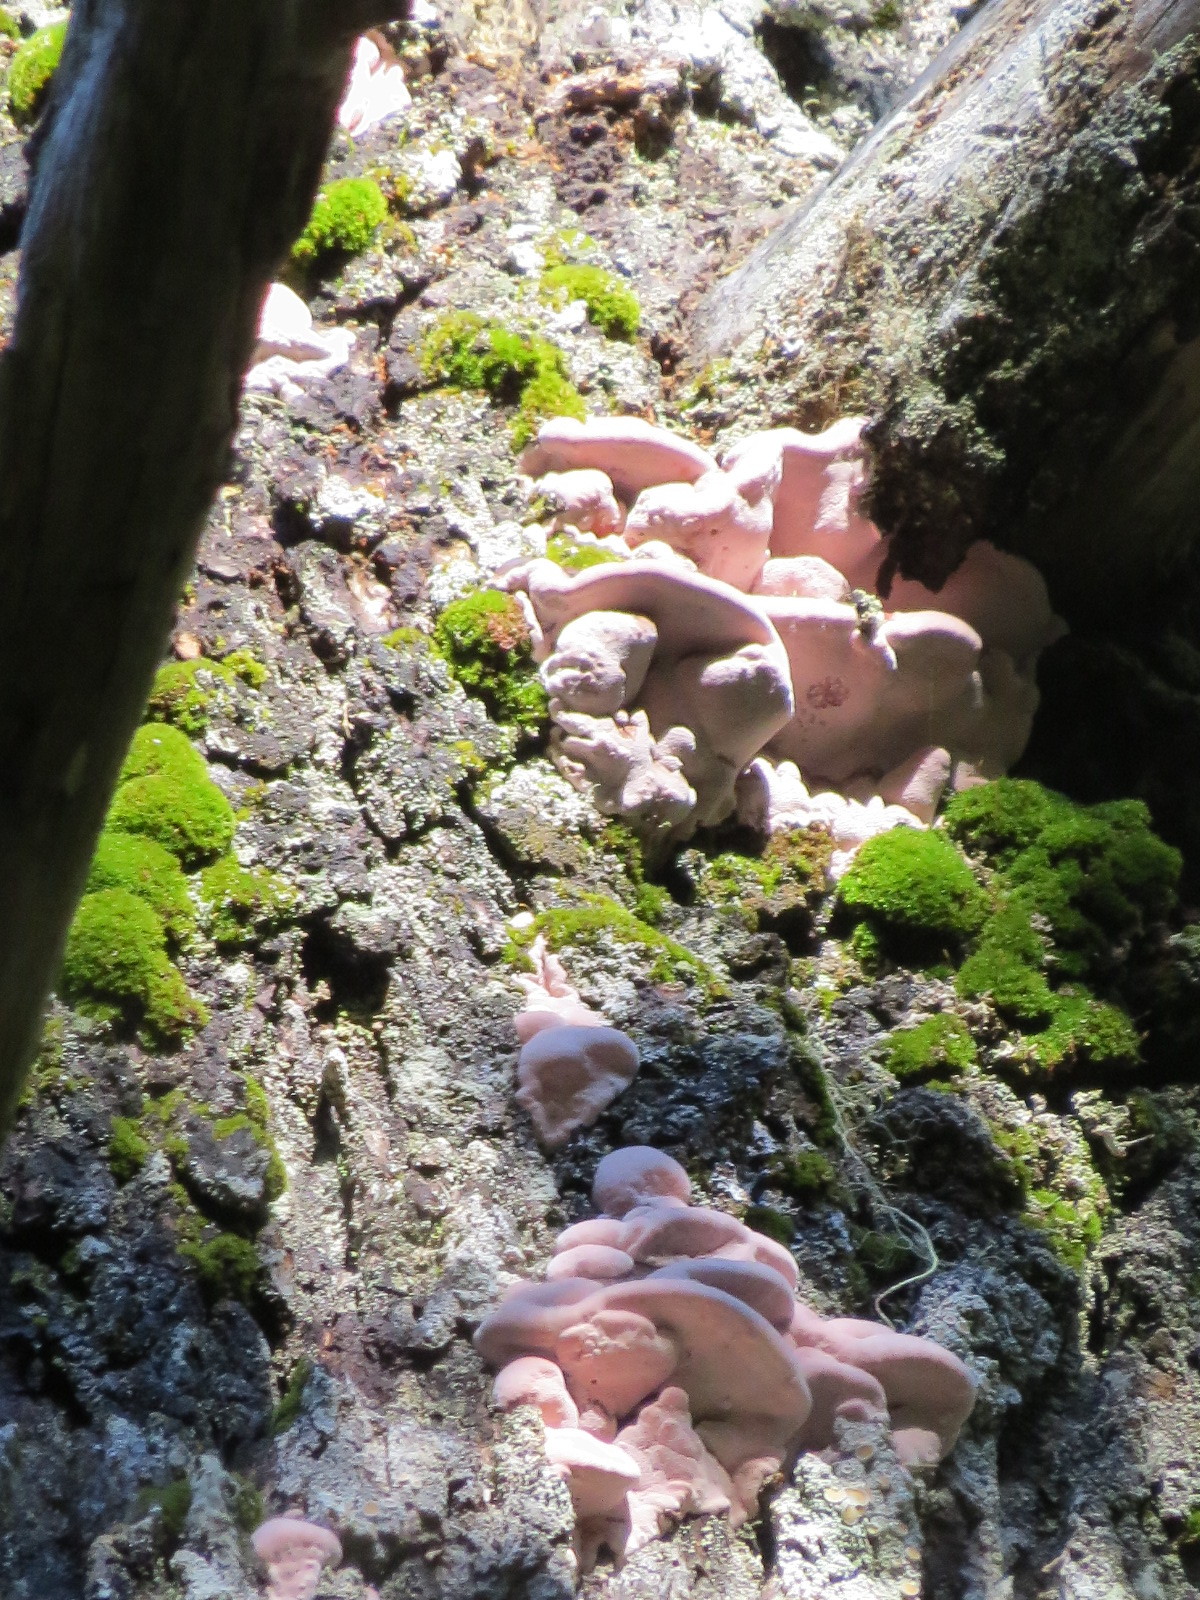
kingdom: Fungi
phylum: Basidiomycota
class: Agaricomycetes
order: Polyporales
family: Fomitopsidaceae
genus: Rhodofomes
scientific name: Rhodofomes cajanderi
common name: Rosy conk
